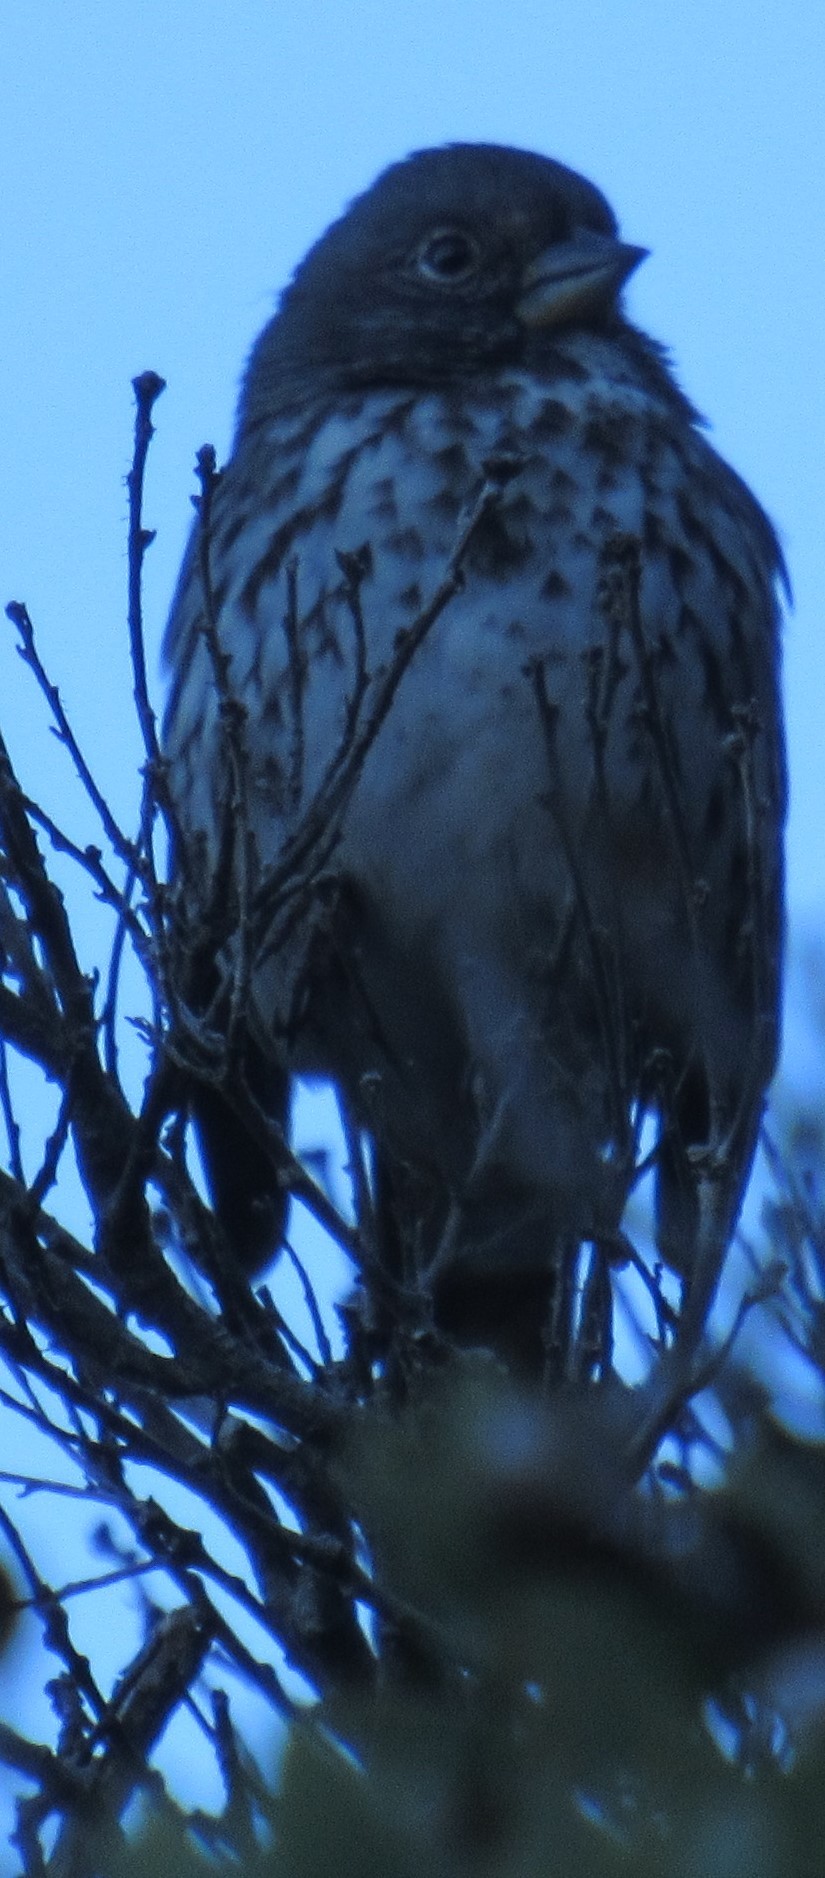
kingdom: Animalia
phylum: Chordata
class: Aves
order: Passeriformes
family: Passerellidae
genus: Passerella
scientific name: Passerella iliaca
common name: Fox sparrow
